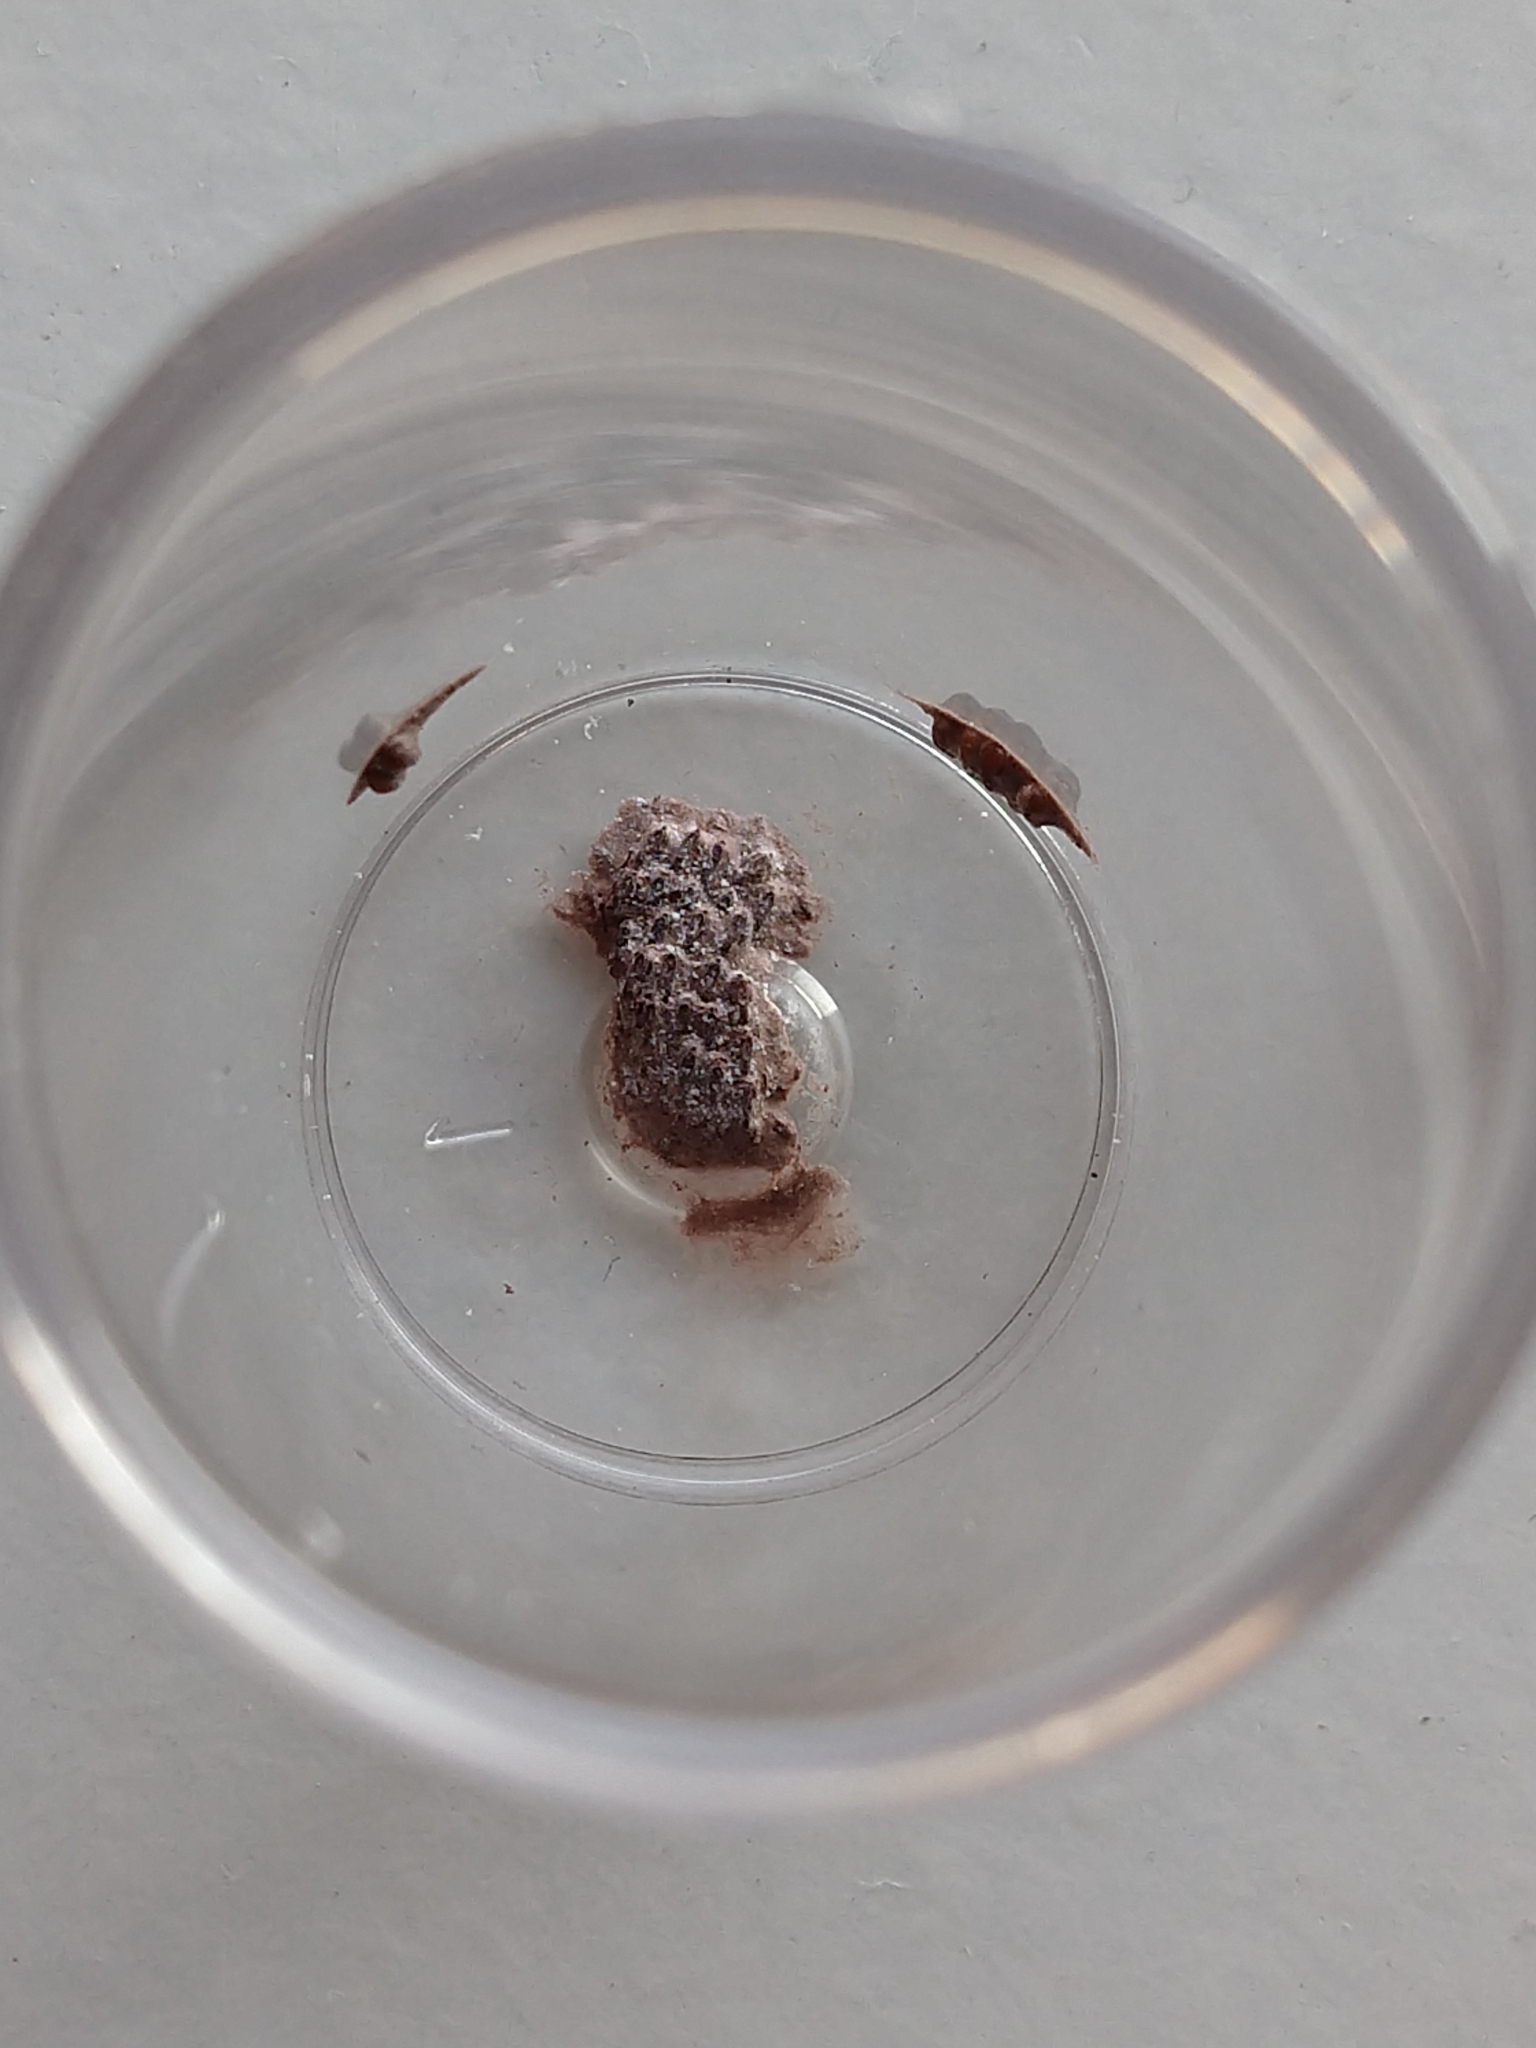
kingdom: Animalia
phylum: Arthropoda
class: Insecta
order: Hemiptera
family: Fulgoridae
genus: Calyptoproctus
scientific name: Calyptoproctus marmoratus
